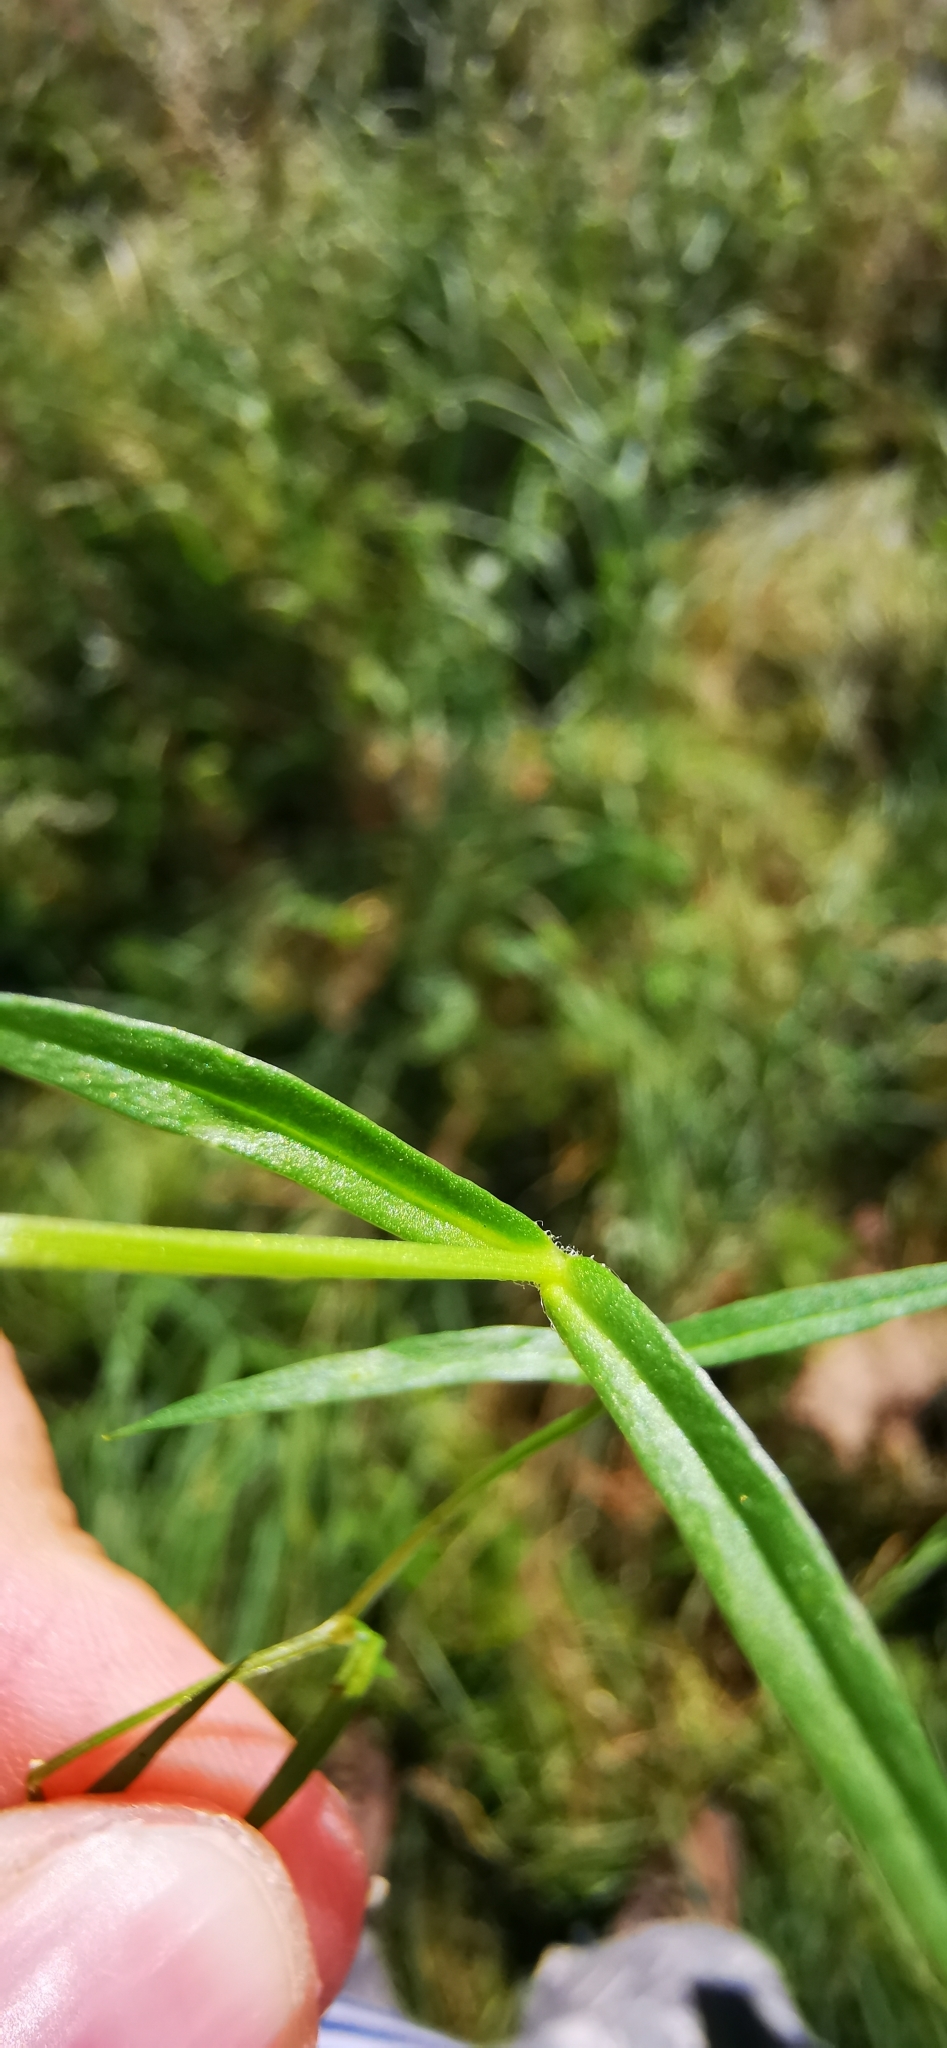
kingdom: Plantae
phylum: Tracheophyta
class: Magnoliopsida
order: Caryophyllales
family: Caryophyllaceae
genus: Stellaria
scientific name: Stellaria graminea
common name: Grass-like starwort
